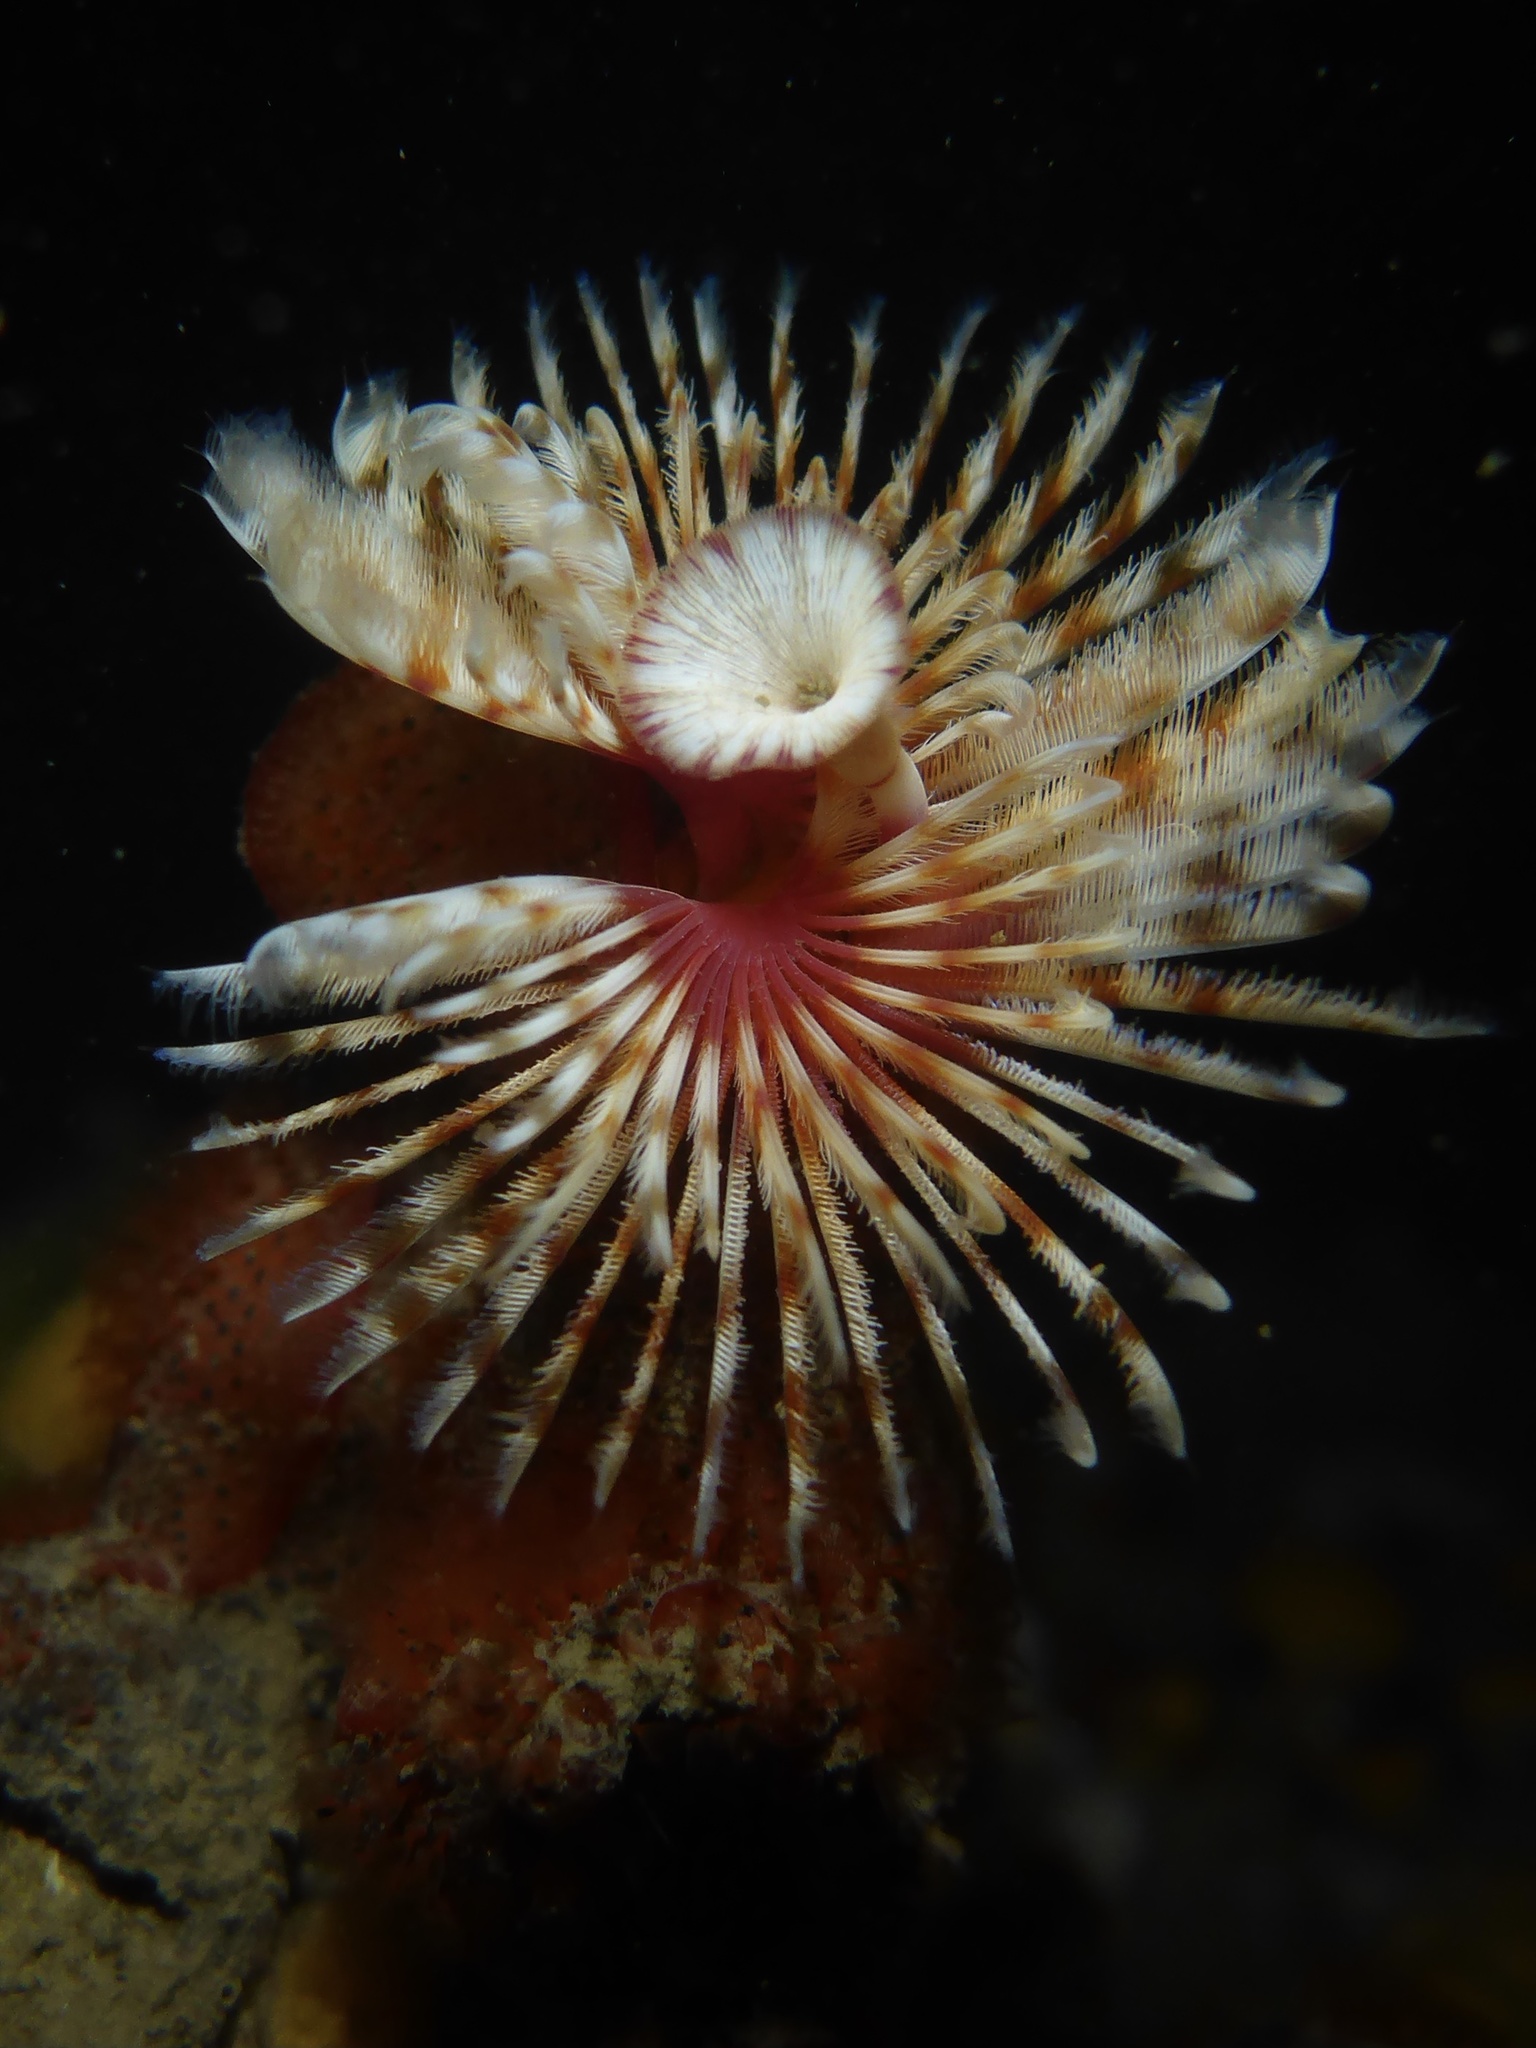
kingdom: Animalia
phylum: Annelida
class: Polychaeta
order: Sabellida
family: Serpulidae
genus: Serpula
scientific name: Serpula columbiana
